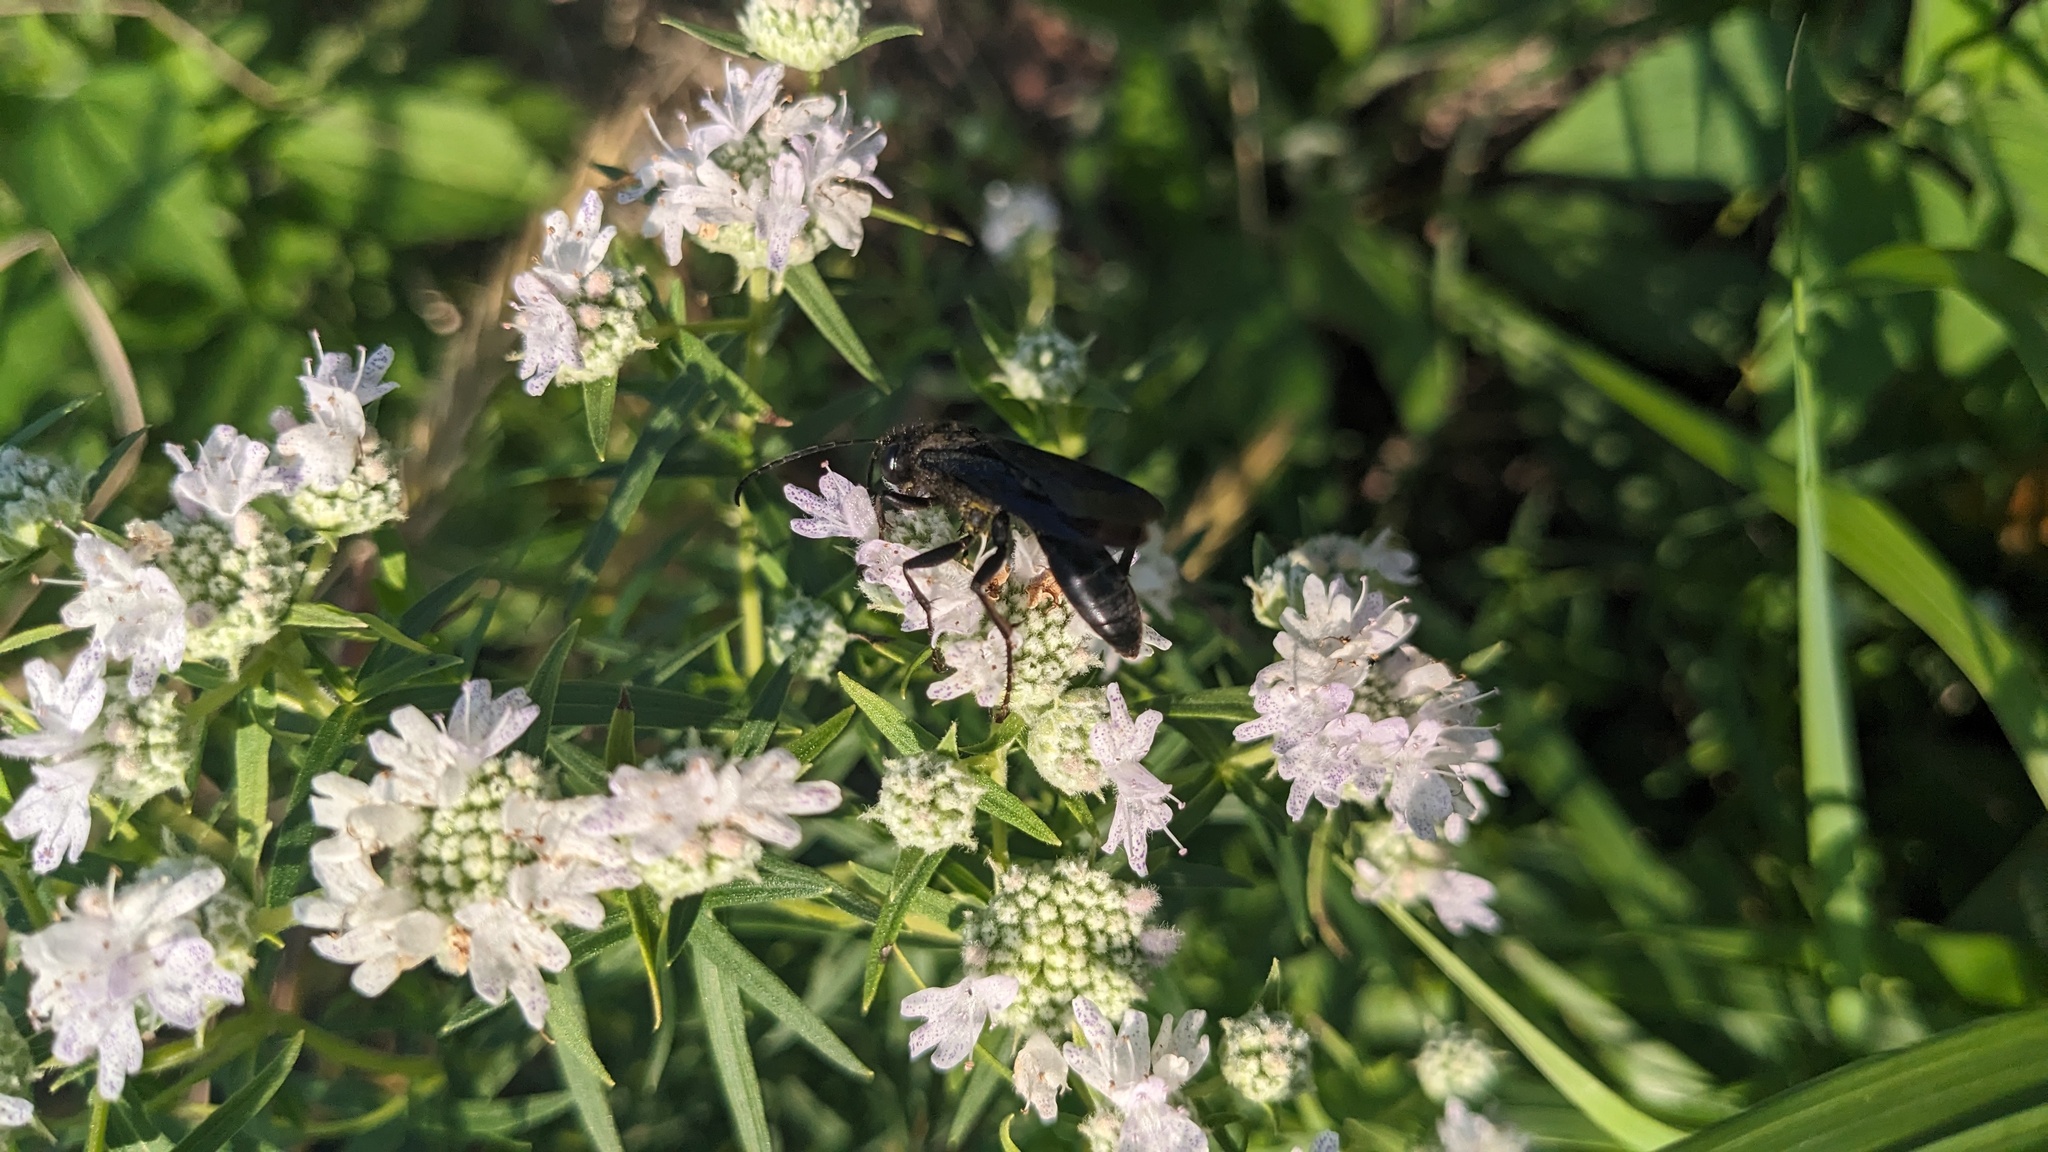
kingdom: Animalia
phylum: Arthropoda
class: Insecta
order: Hymenoptera
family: Sphecidae
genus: Sphex
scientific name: Sphex pensylvanicus
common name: Great black digger wasp
